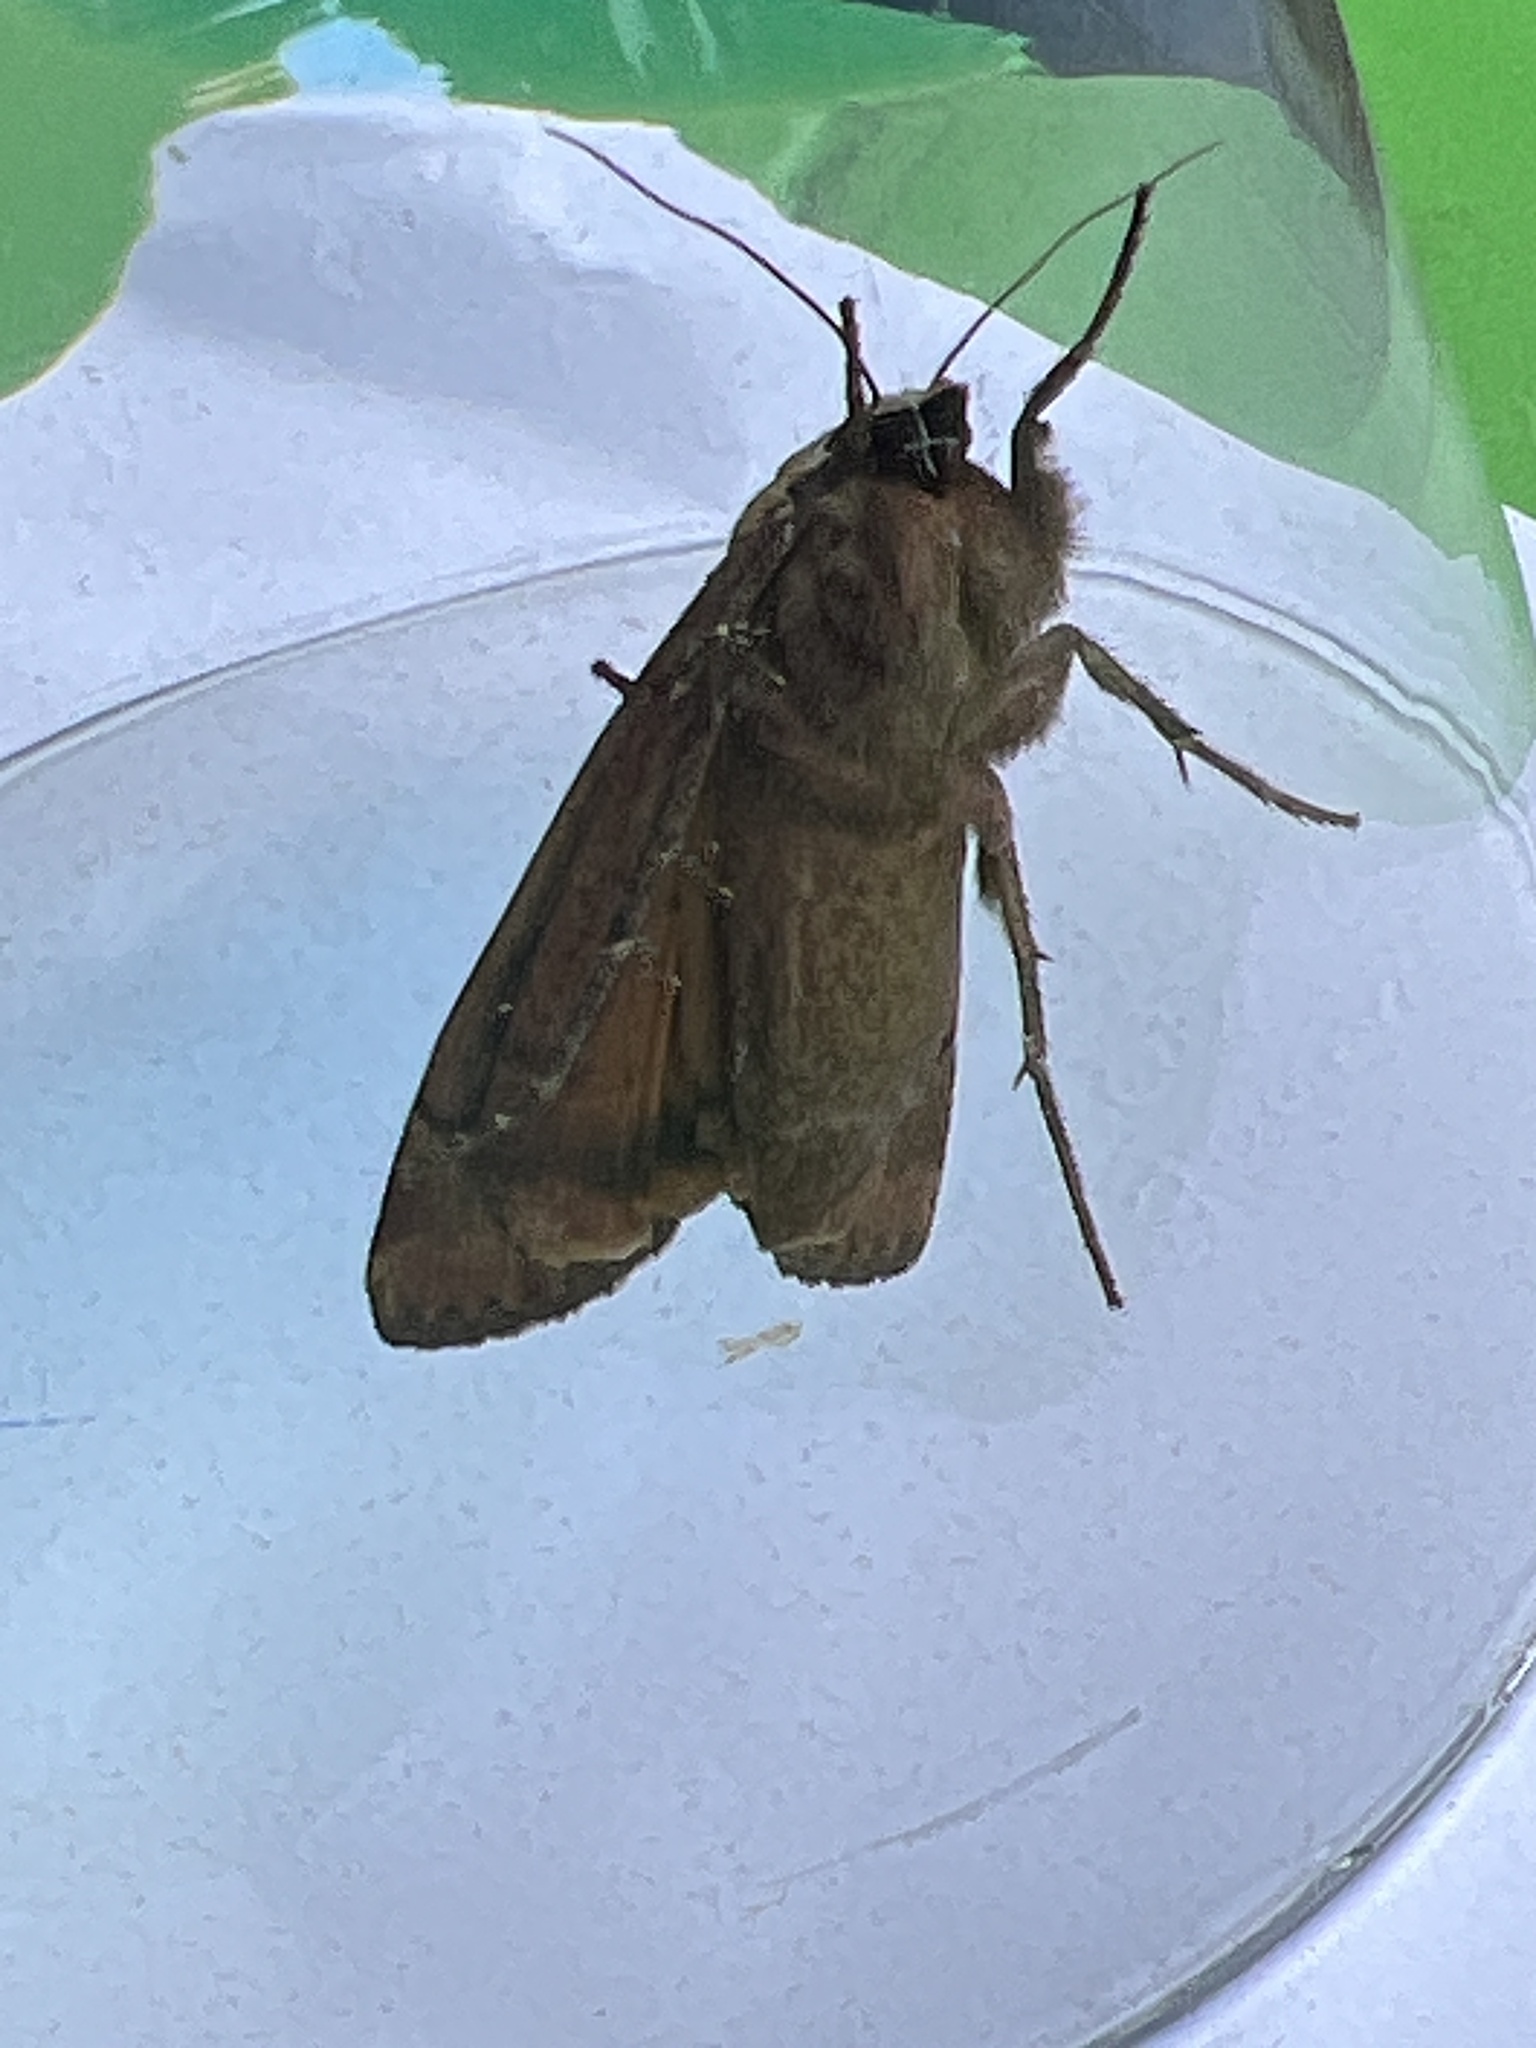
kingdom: Animalia
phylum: Arthropoda
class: Insecta
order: Lepidoptera
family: Noctuidae
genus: Noctua
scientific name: Noctua pronuba
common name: Large yellow underwing
